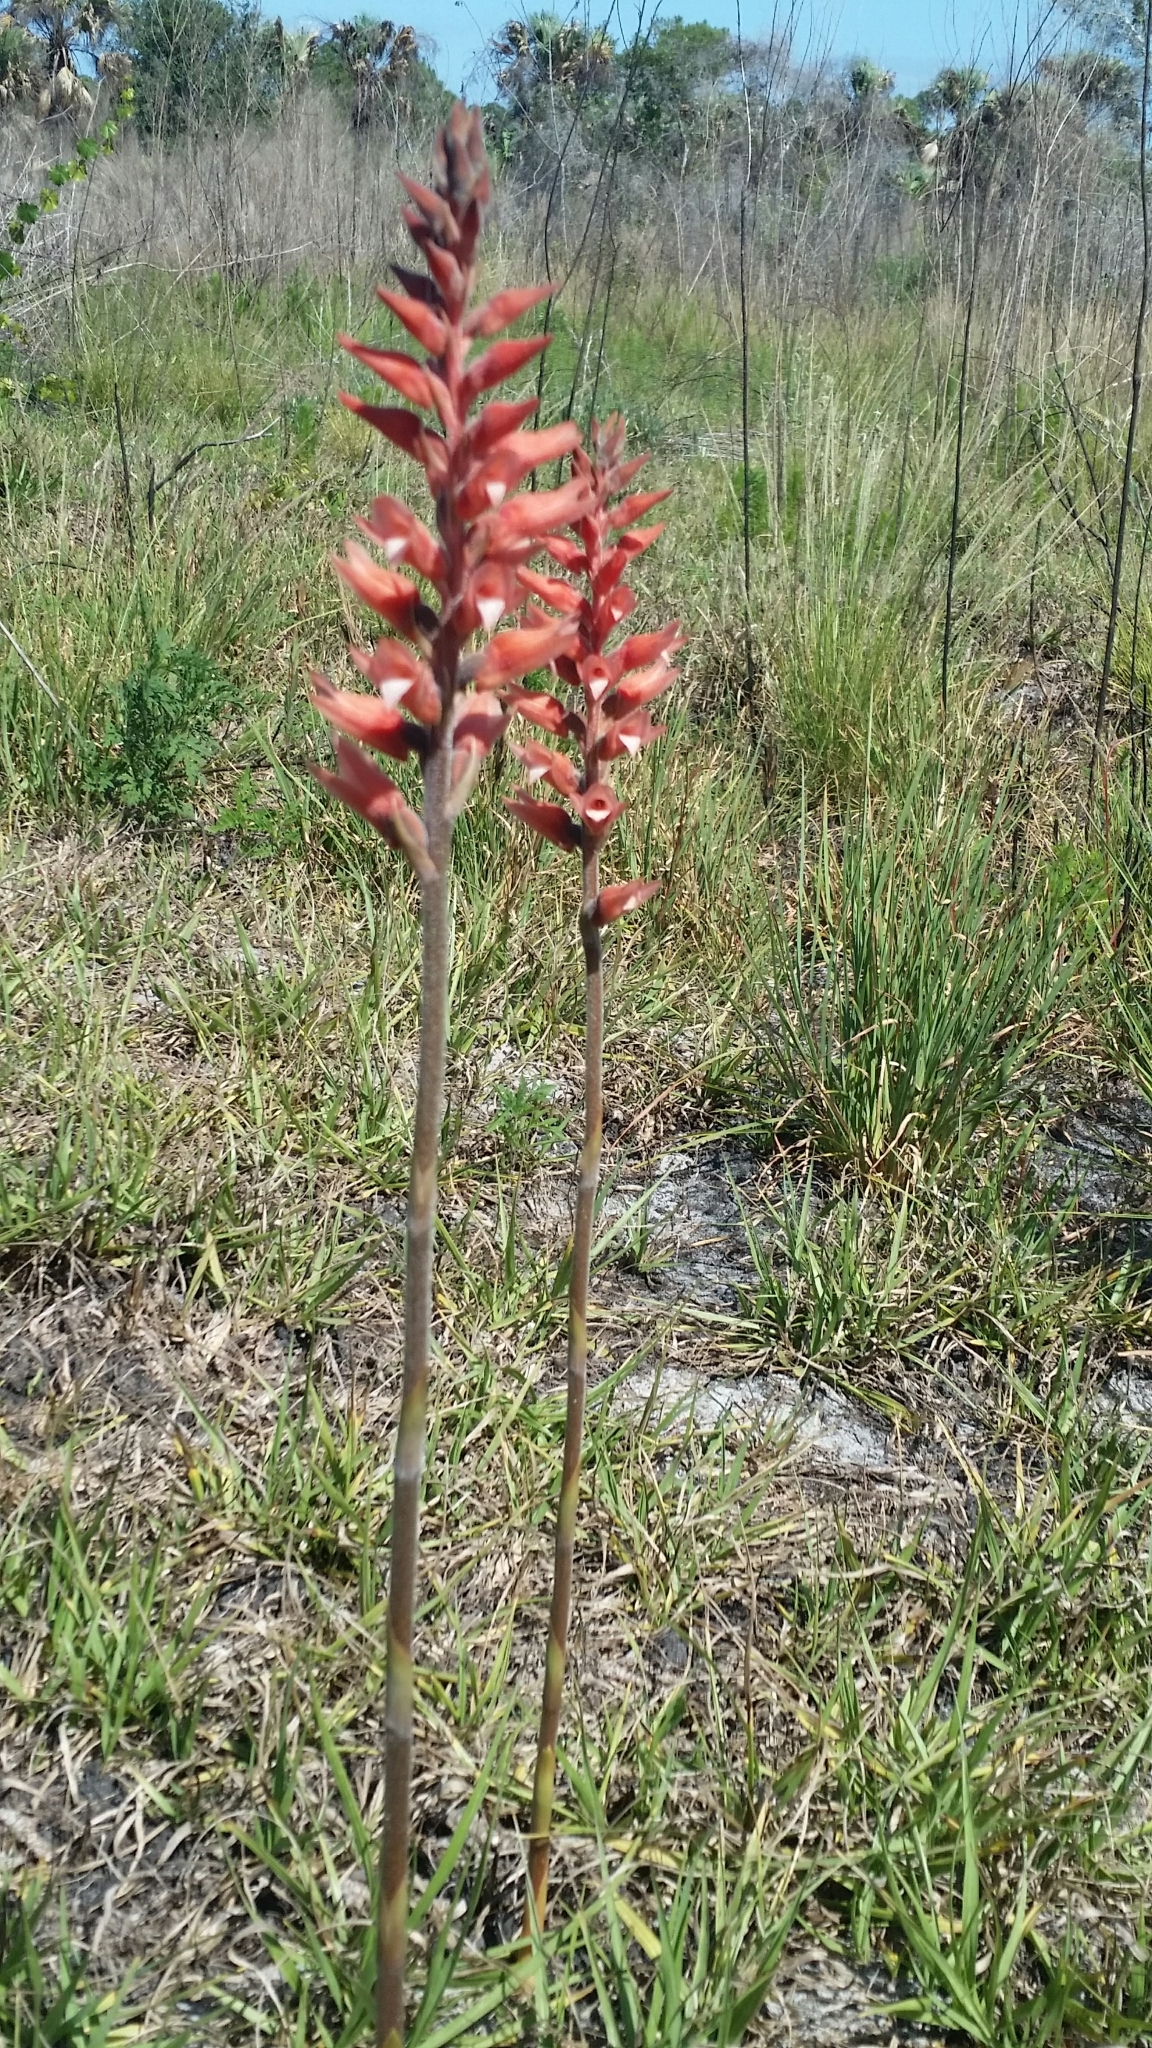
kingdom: Plantae
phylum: Tracheophyta
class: Liliopsida
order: Asparagales
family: Orchidaceae
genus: Sacoila
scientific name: Sacoila lanceolata
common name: Leafless beaked ladiestresses
